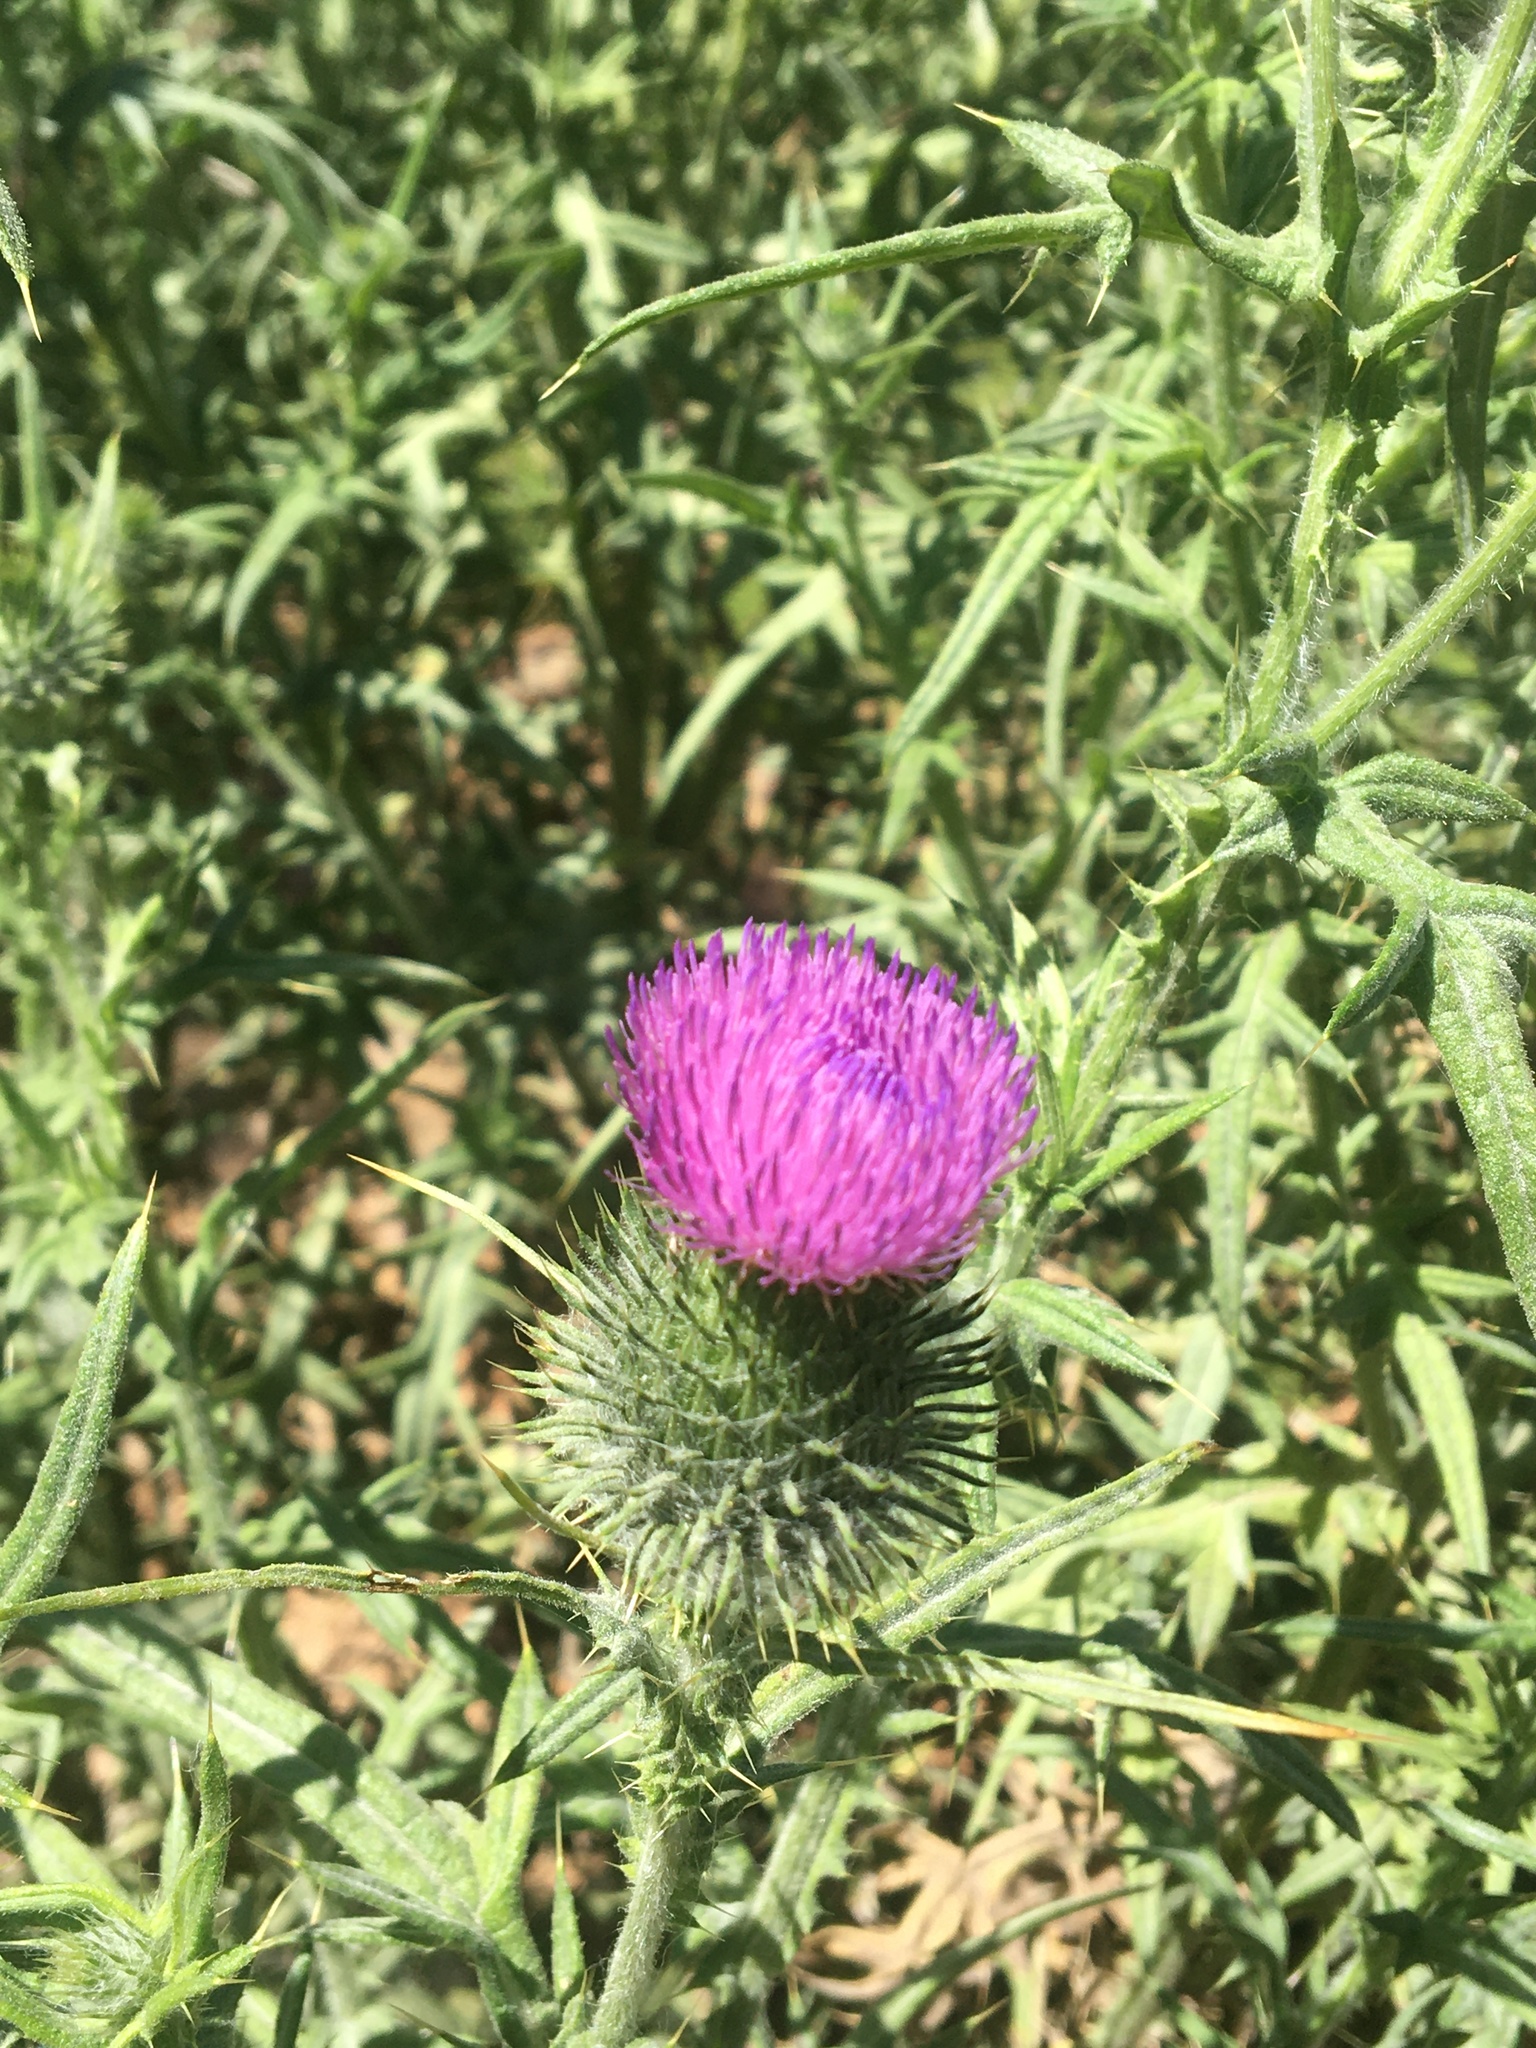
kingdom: Plantae
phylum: Tracheophyta
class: Magnoliopsida
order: Asterales
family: Asteraceae
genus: Cirsium
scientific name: Cirsium vulgare
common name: Bull thistle
